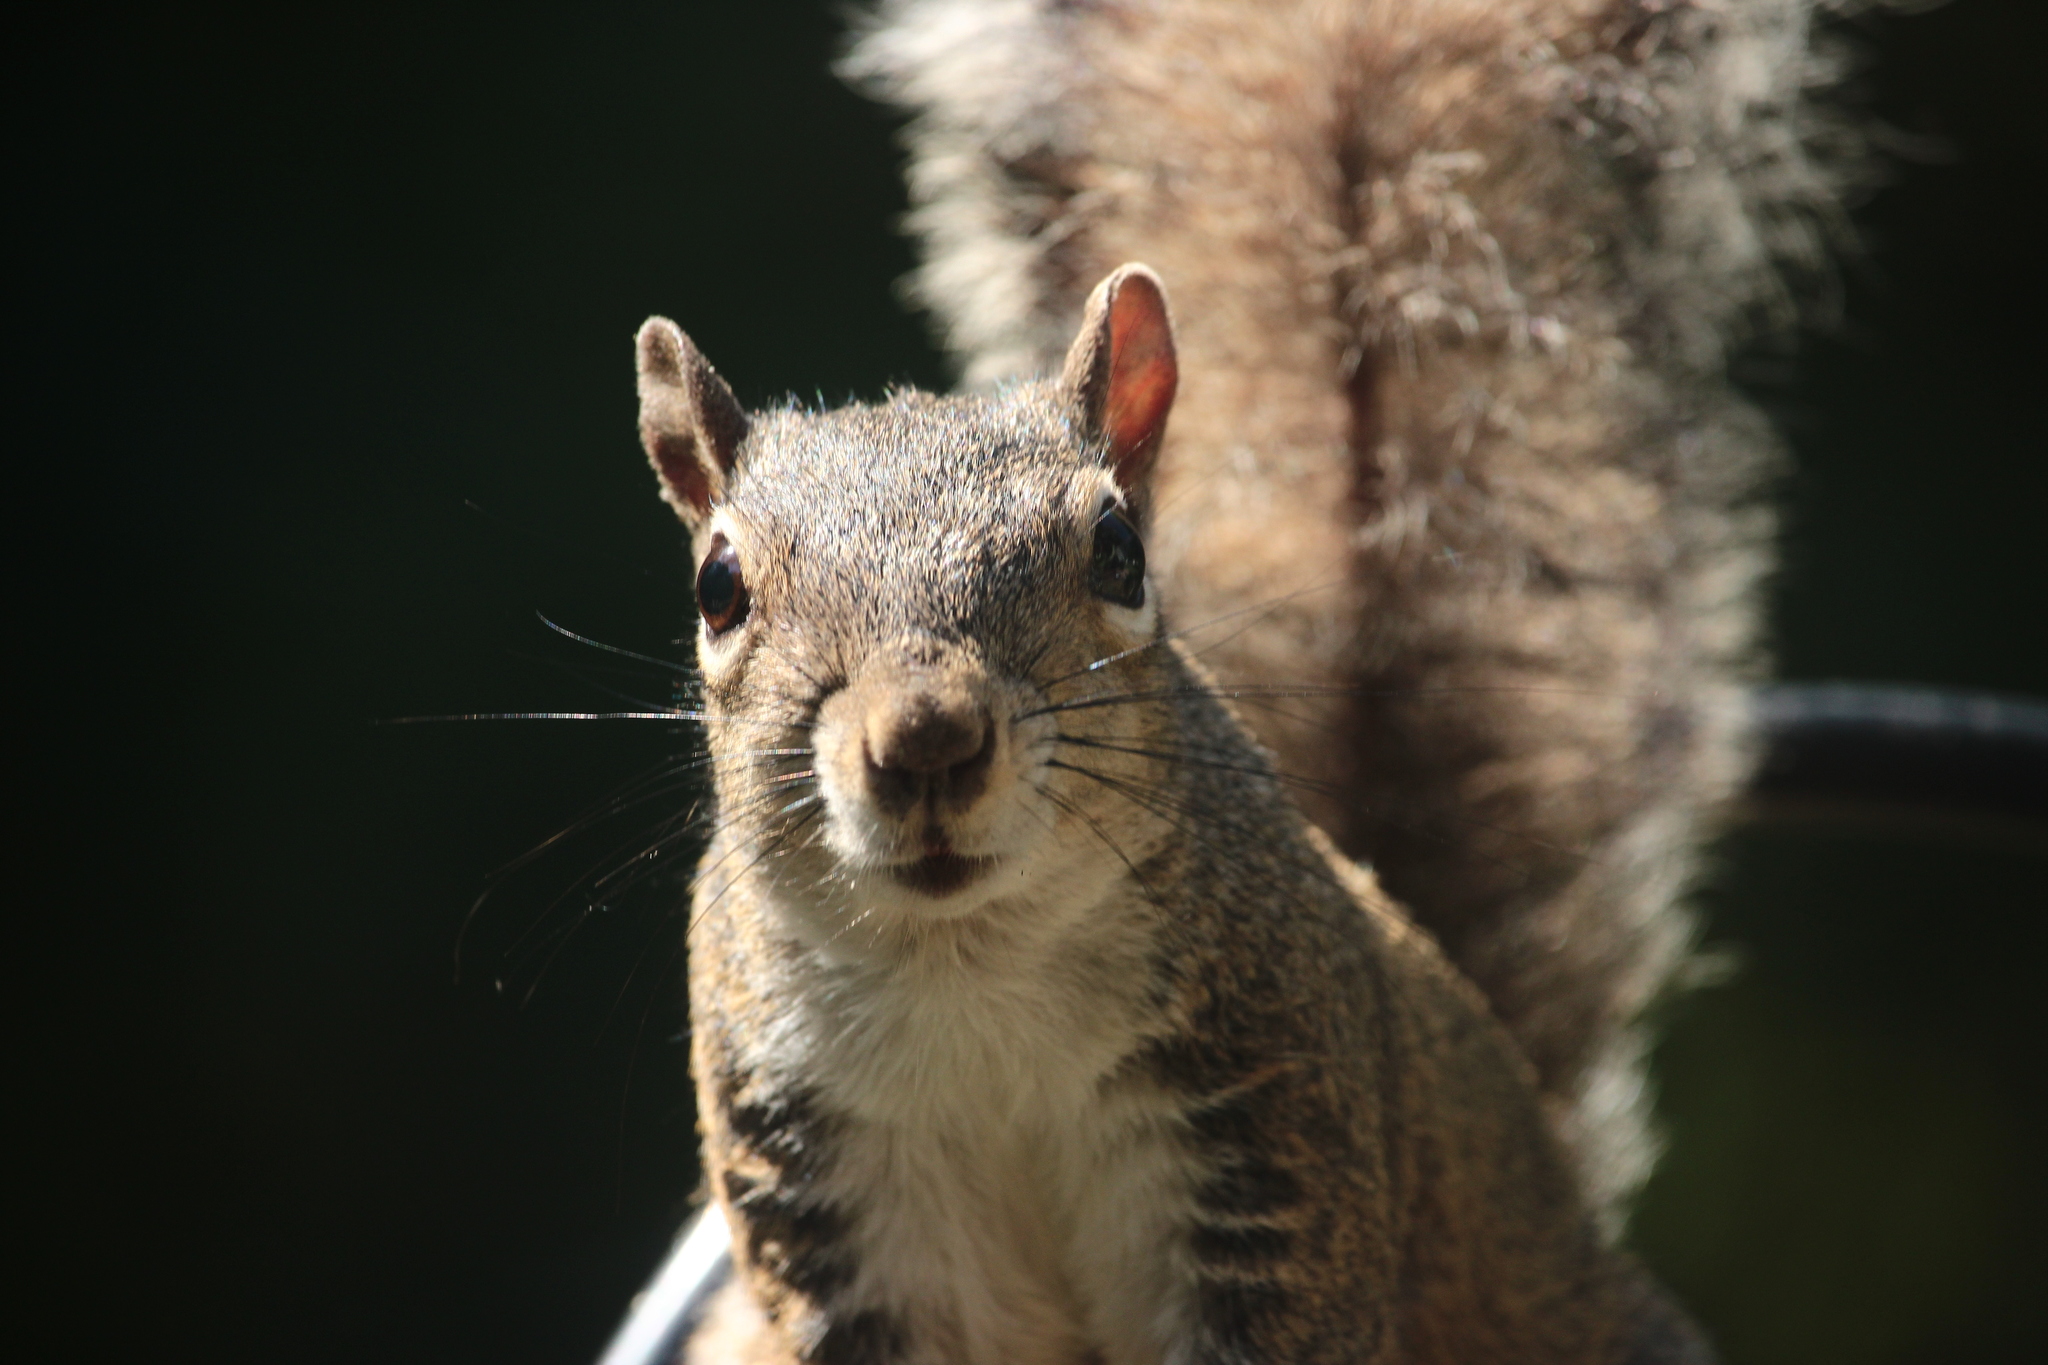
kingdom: Animalia
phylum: Chordata
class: Mammalia
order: Rodentia
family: Sciuridae
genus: Sciurus
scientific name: Sciurus carolinensis
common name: Eastern gray squirrel
